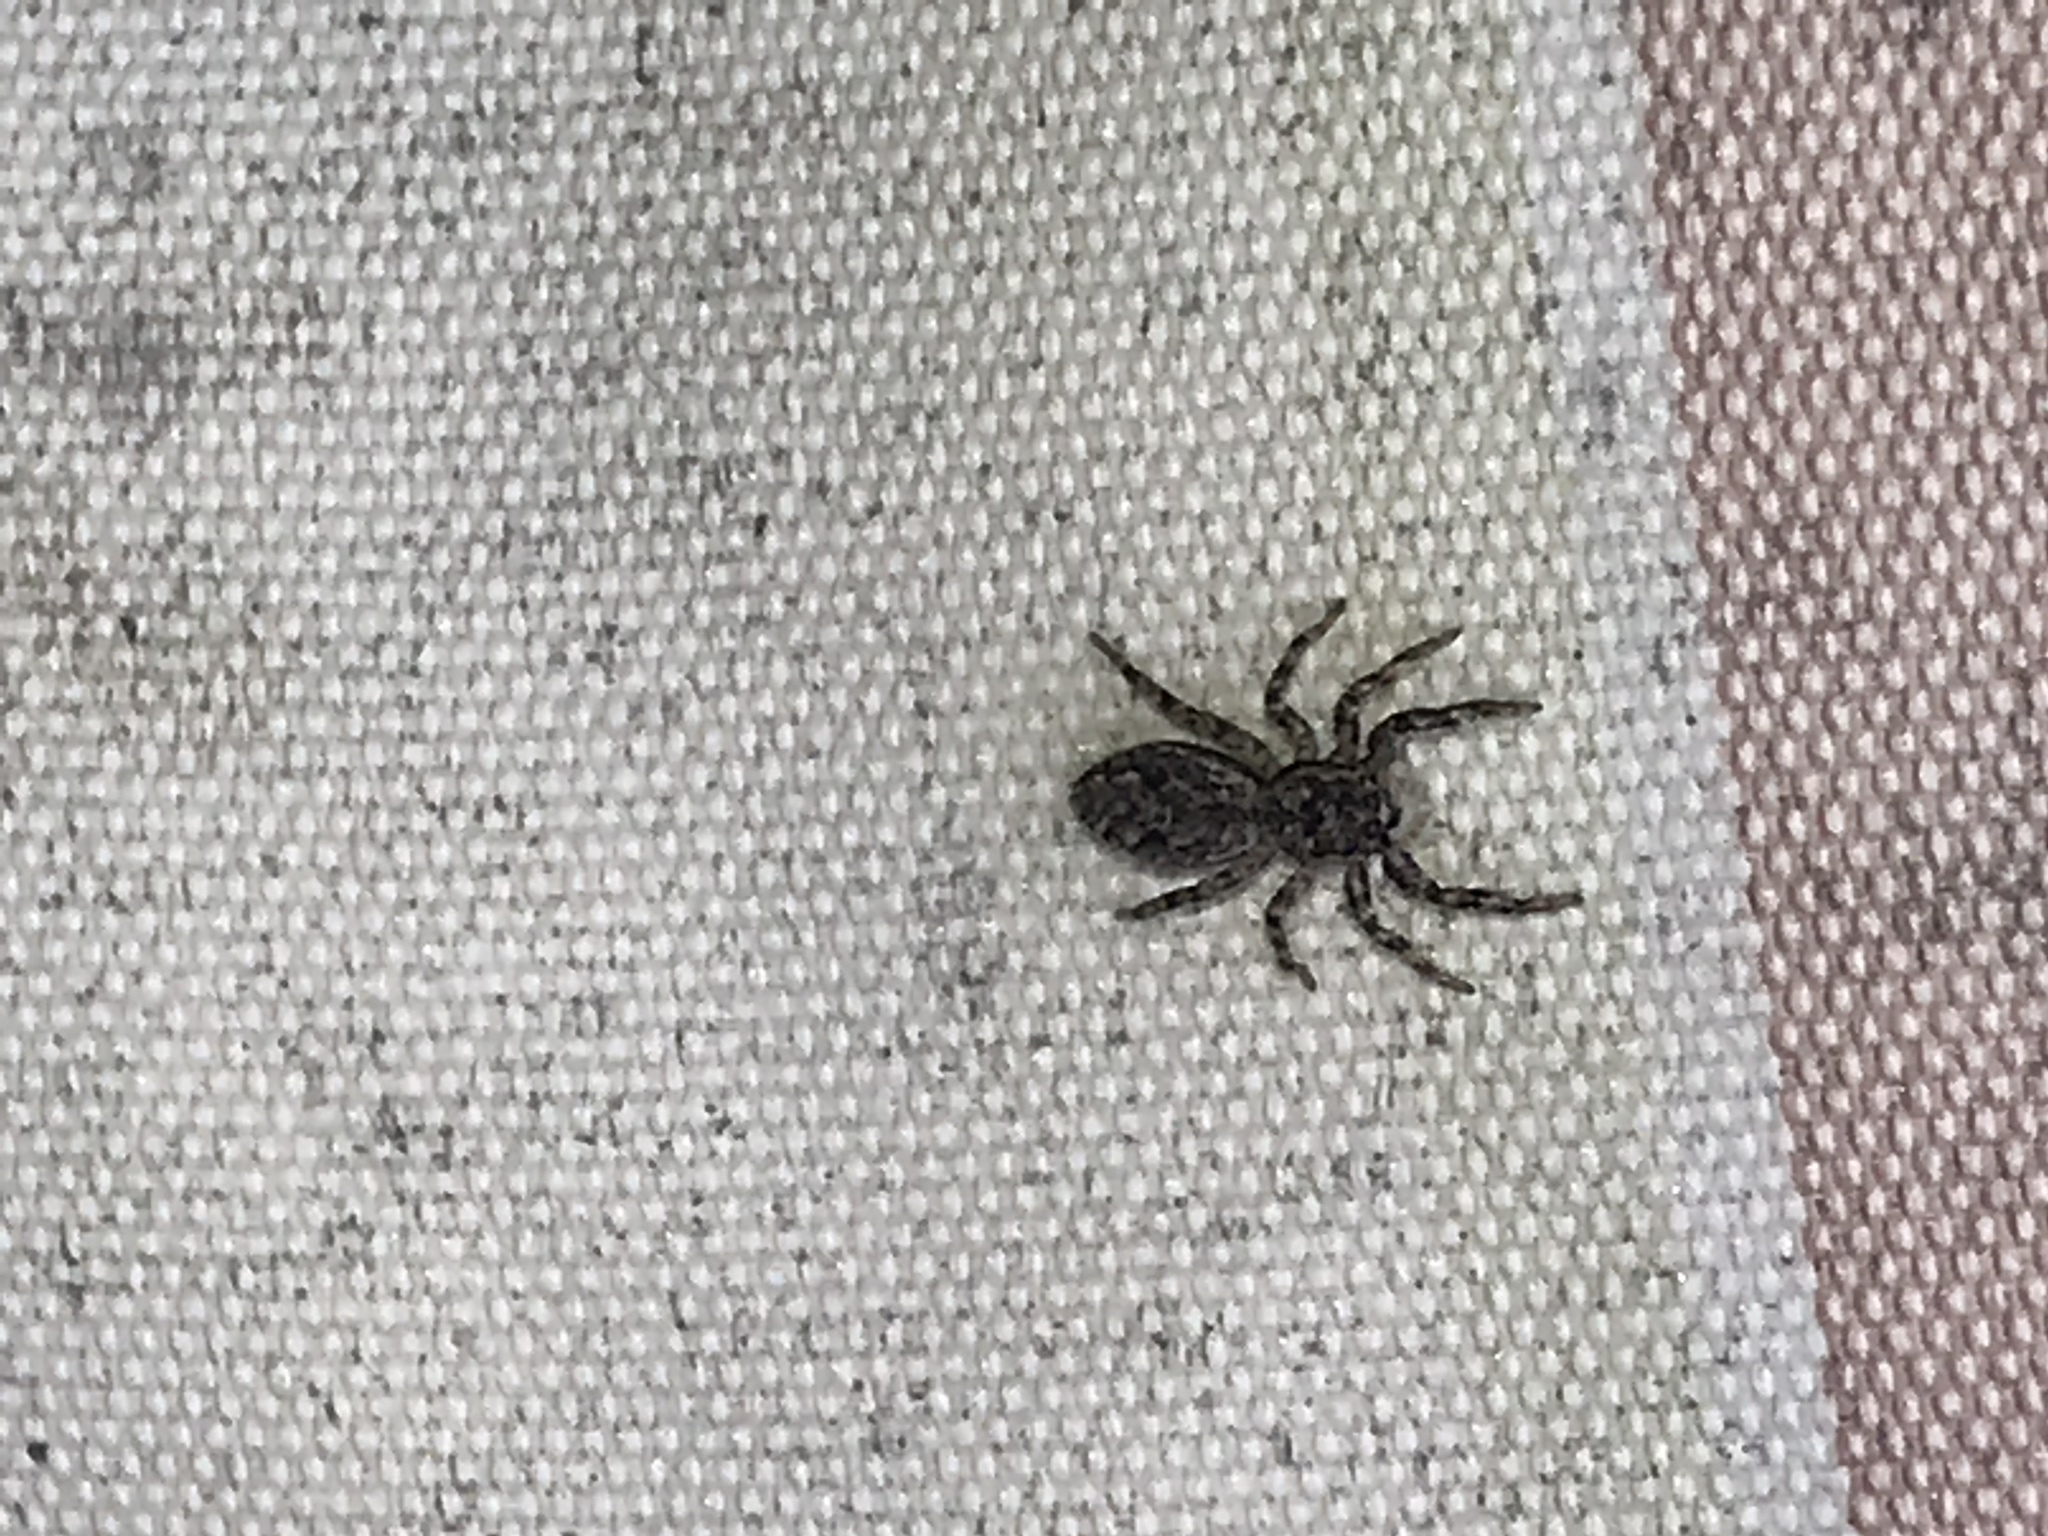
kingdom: Animalia
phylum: Arthropoda
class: Arachnida
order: Araneae
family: Salticidae
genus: Platycryptus
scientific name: Platycryptus undatus
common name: Tan jumping spider
